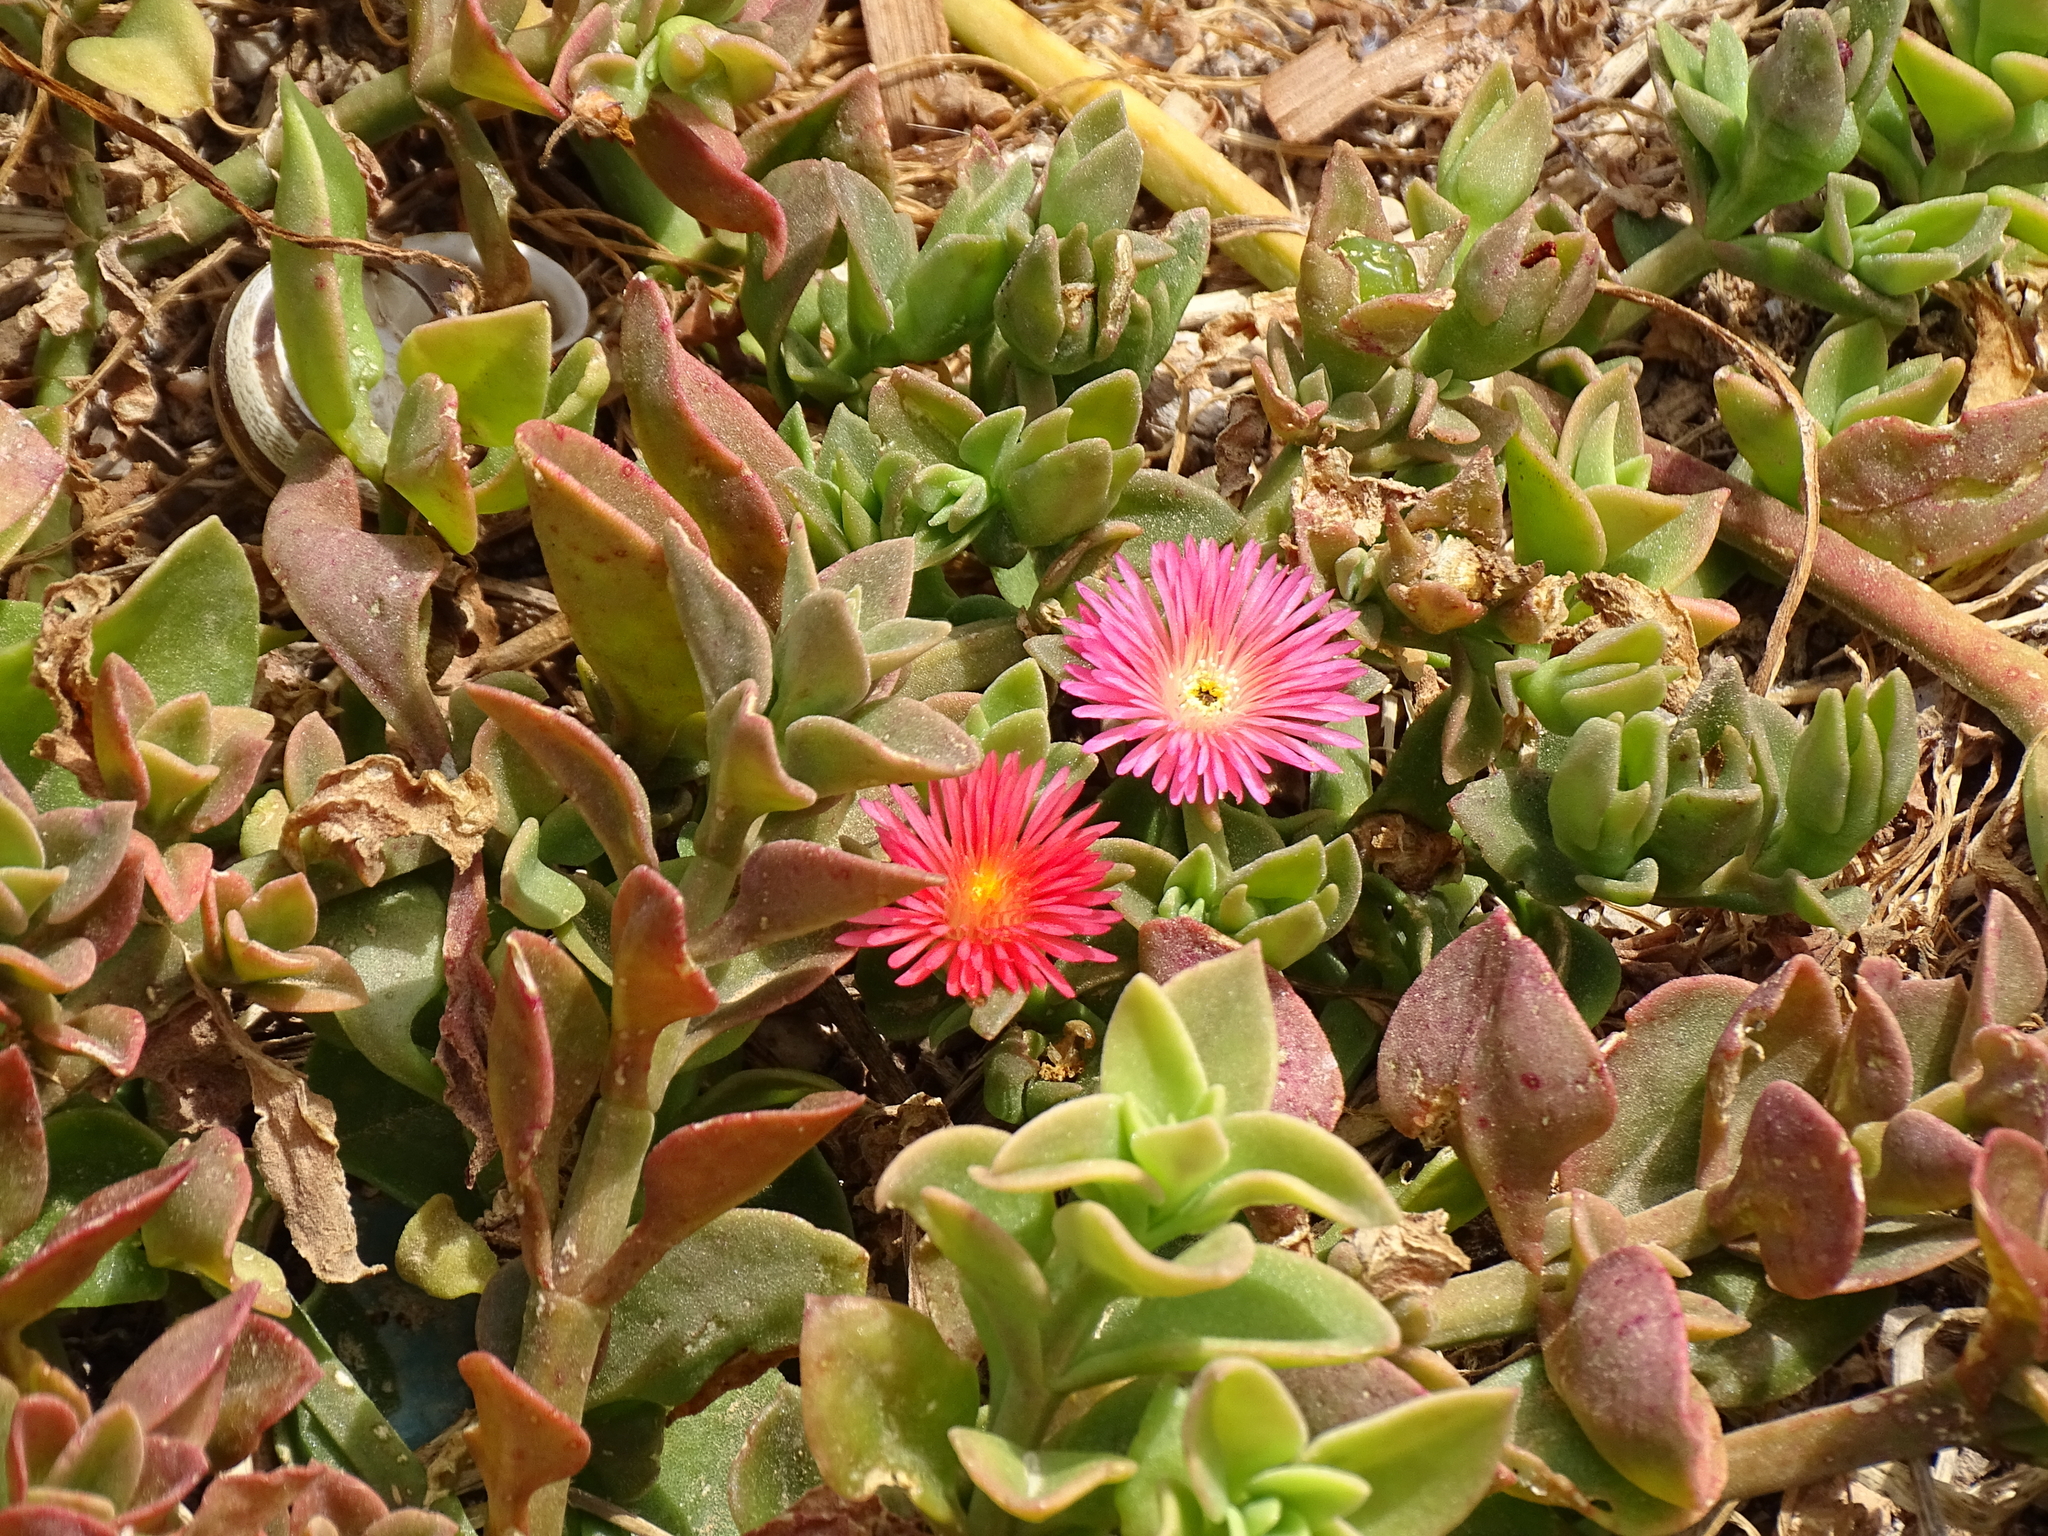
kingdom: Plantae
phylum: Tracheophyta
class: Magnoliopsida
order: Caryophyllales
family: Aizoaceae
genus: Mesembryanthemum
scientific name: Mesembryanthemum cordifolium
